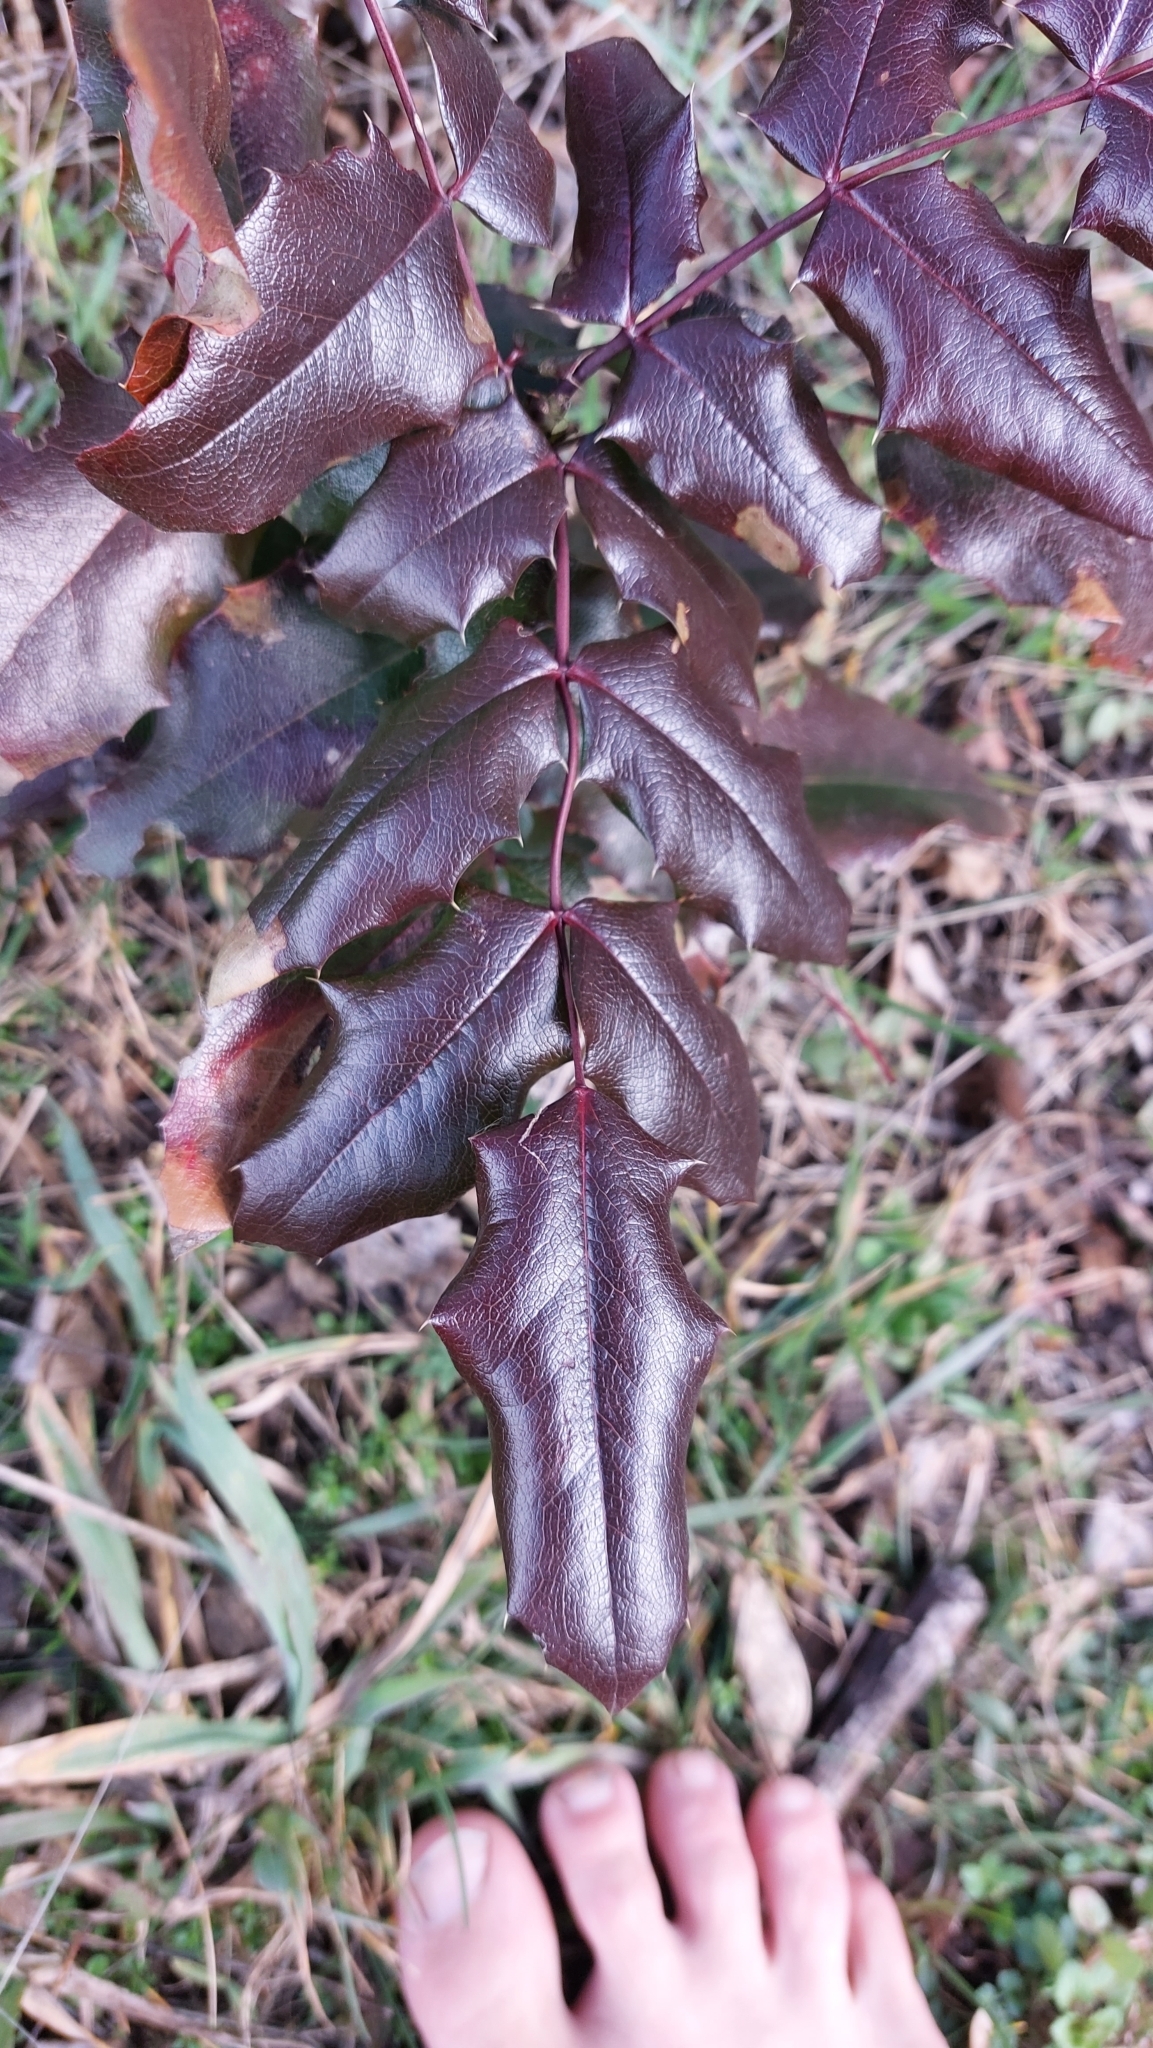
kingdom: Plantae
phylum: Tracheophyta
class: Magnoliopsida
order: Ranunculales
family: Berberidaceae
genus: Mahonia
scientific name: Mahonia aquifolium
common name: Oregon-grape
